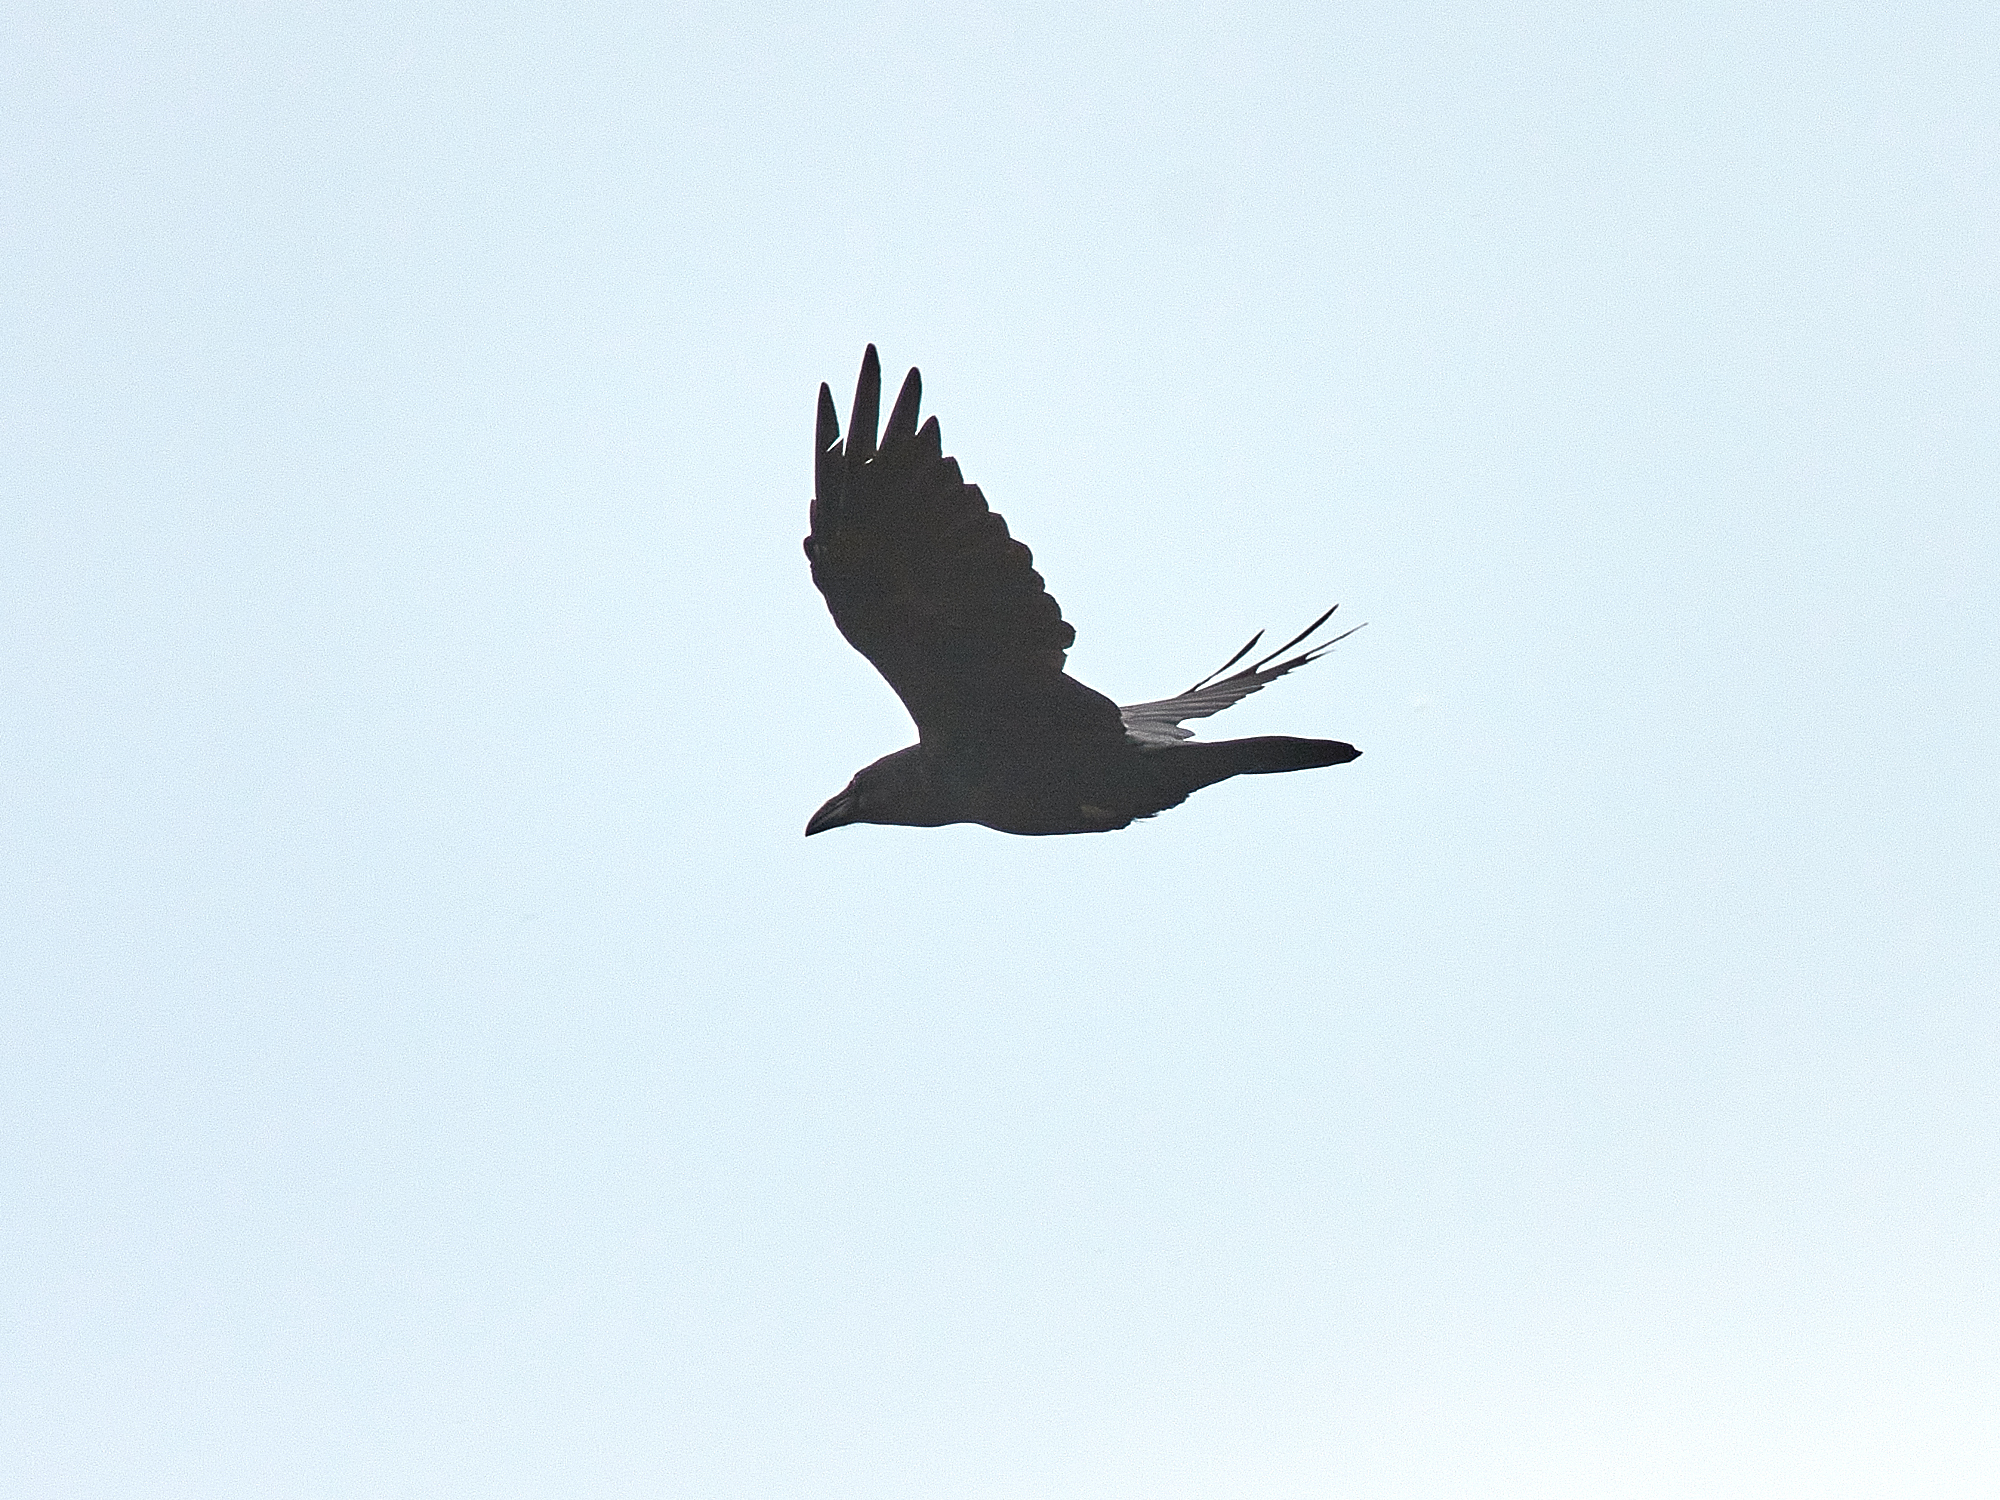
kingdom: Animalia
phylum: Chordata
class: Aves
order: Passeriformes
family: Corvidae
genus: Corvus
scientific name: Corvus corax
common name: Common raven
